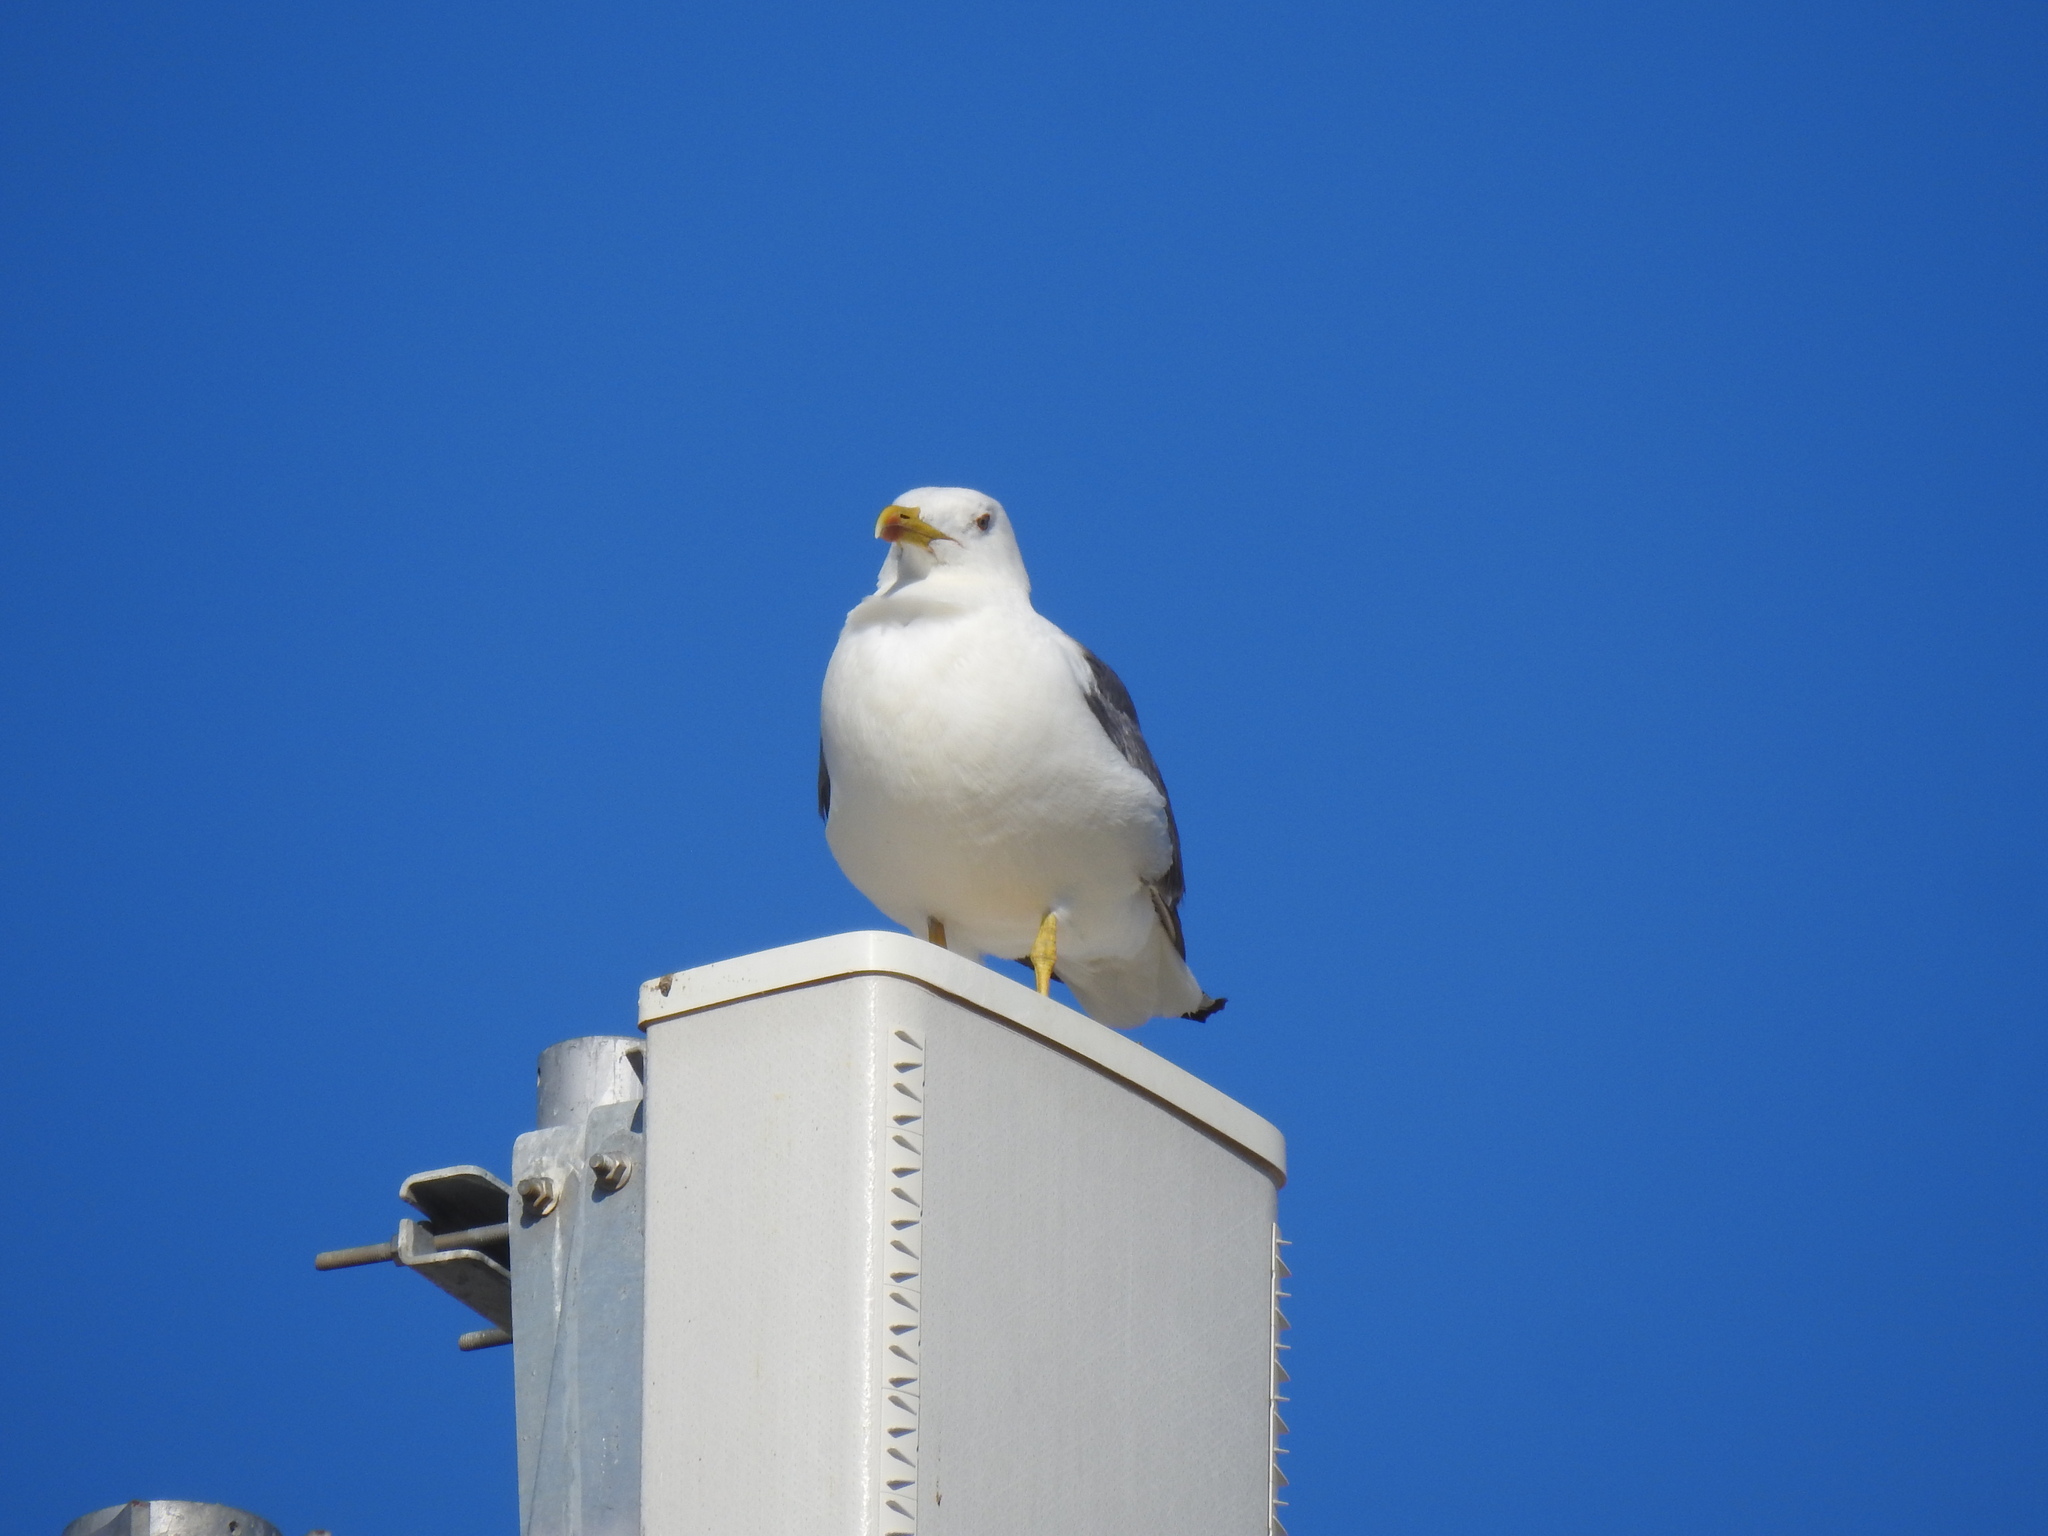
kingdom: Animalia
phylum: Chordata
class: Aves
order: Charadriiformes
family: Laridae
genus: Larus
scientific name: Larus michahellis
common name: Yellow-legged gull
